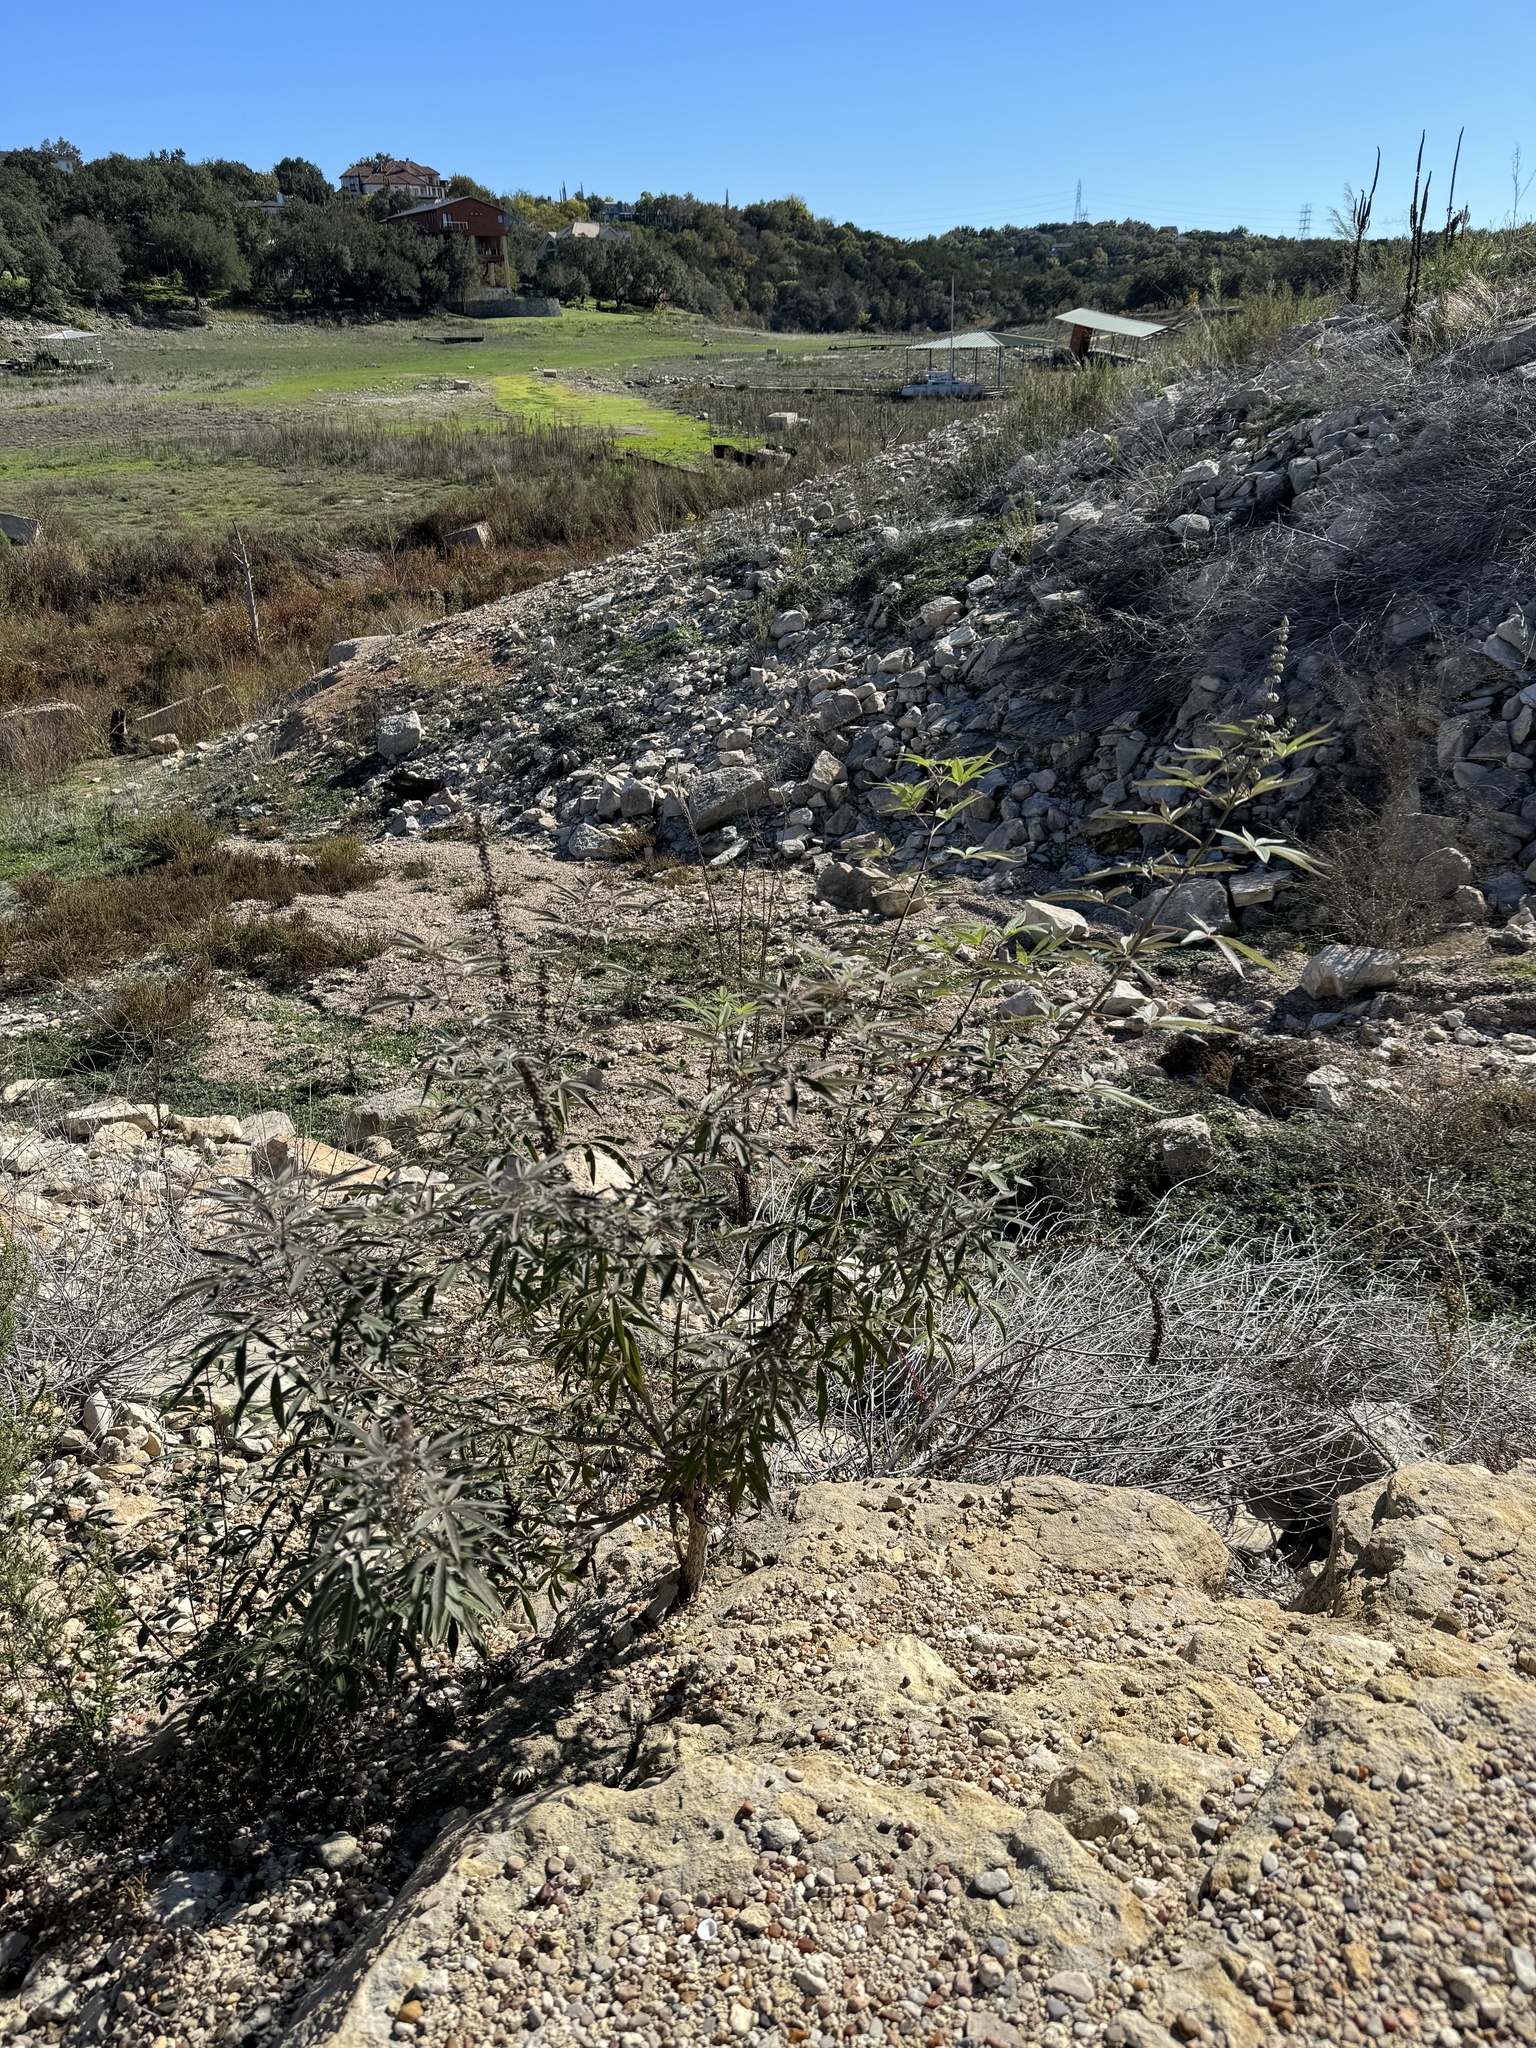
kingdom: Plantae
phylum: Tracheophyta
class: Magnoliopsida
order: Lamiales
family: Lamiaceae
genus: Vitex
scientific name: Vitex agnus-castus
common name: Chasteberry
